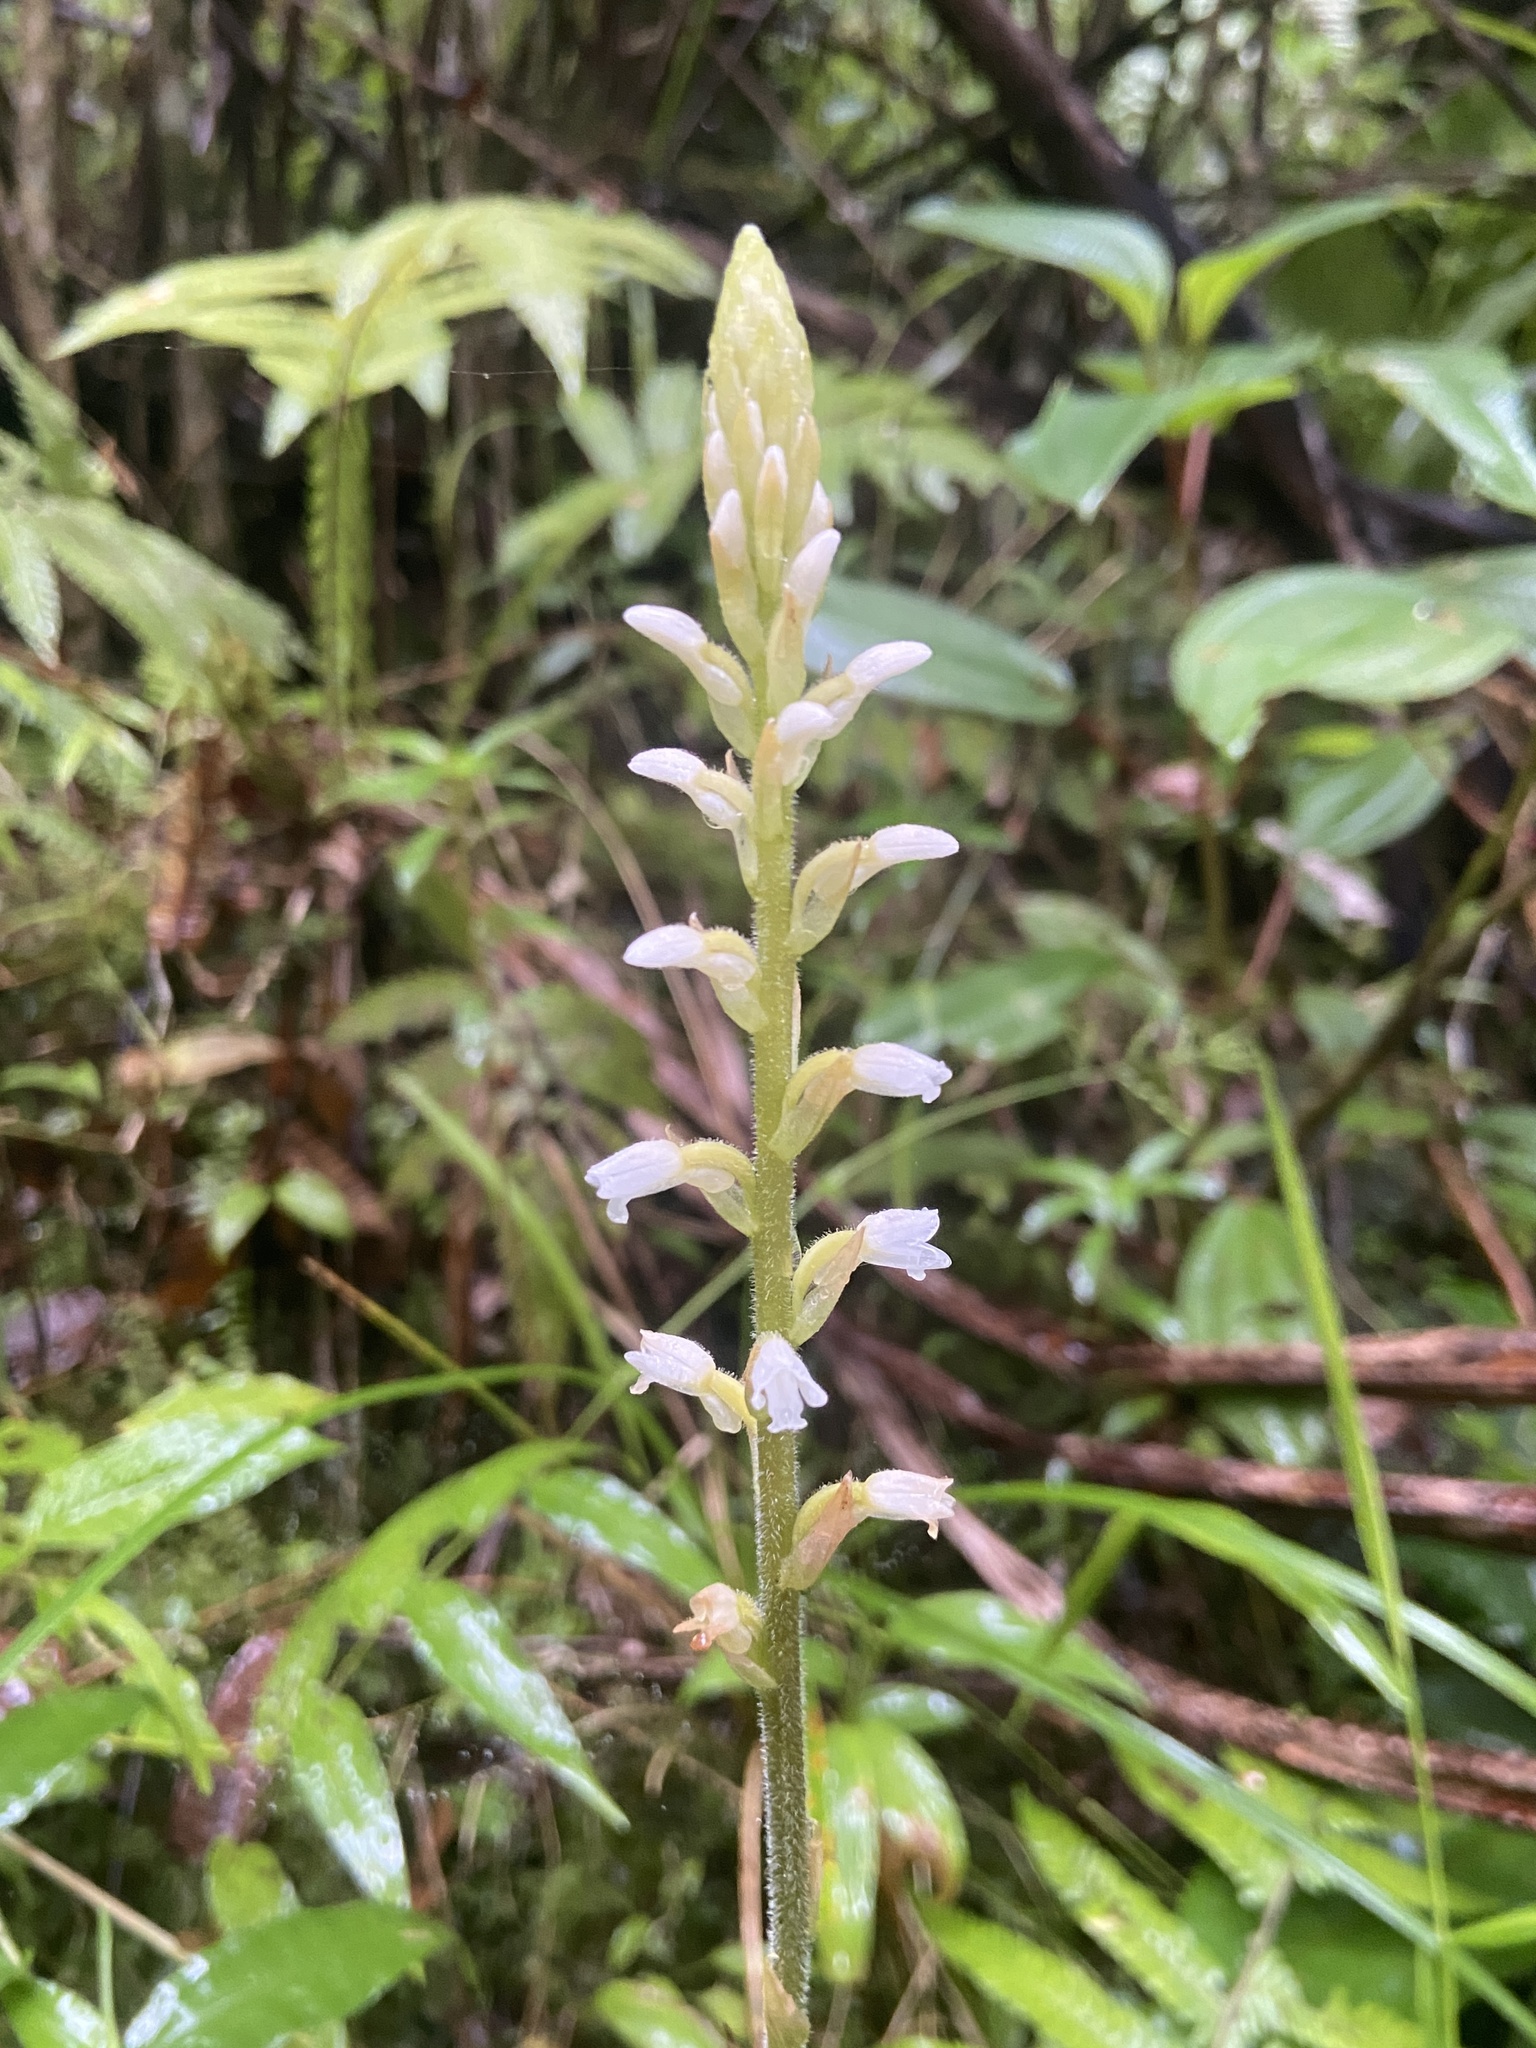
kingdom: Plantae
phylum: Tracheophyta
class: Liliopsida
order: Asparagales
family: Orchidaceae
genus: Microchilus
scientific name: Microchilus plantagineus
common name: Caribbean false helmetorchid
